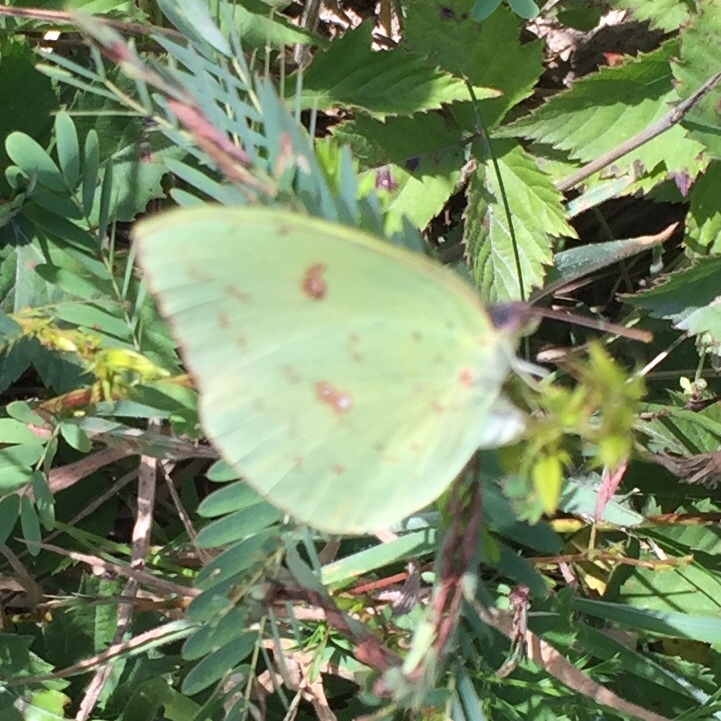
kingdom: Animalia
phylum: Arthropoda
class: Insecta
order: Lepidoptera
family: Pieridae
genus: Phoebis
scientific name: Phoebis sennae
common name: Cloudless sulphur
